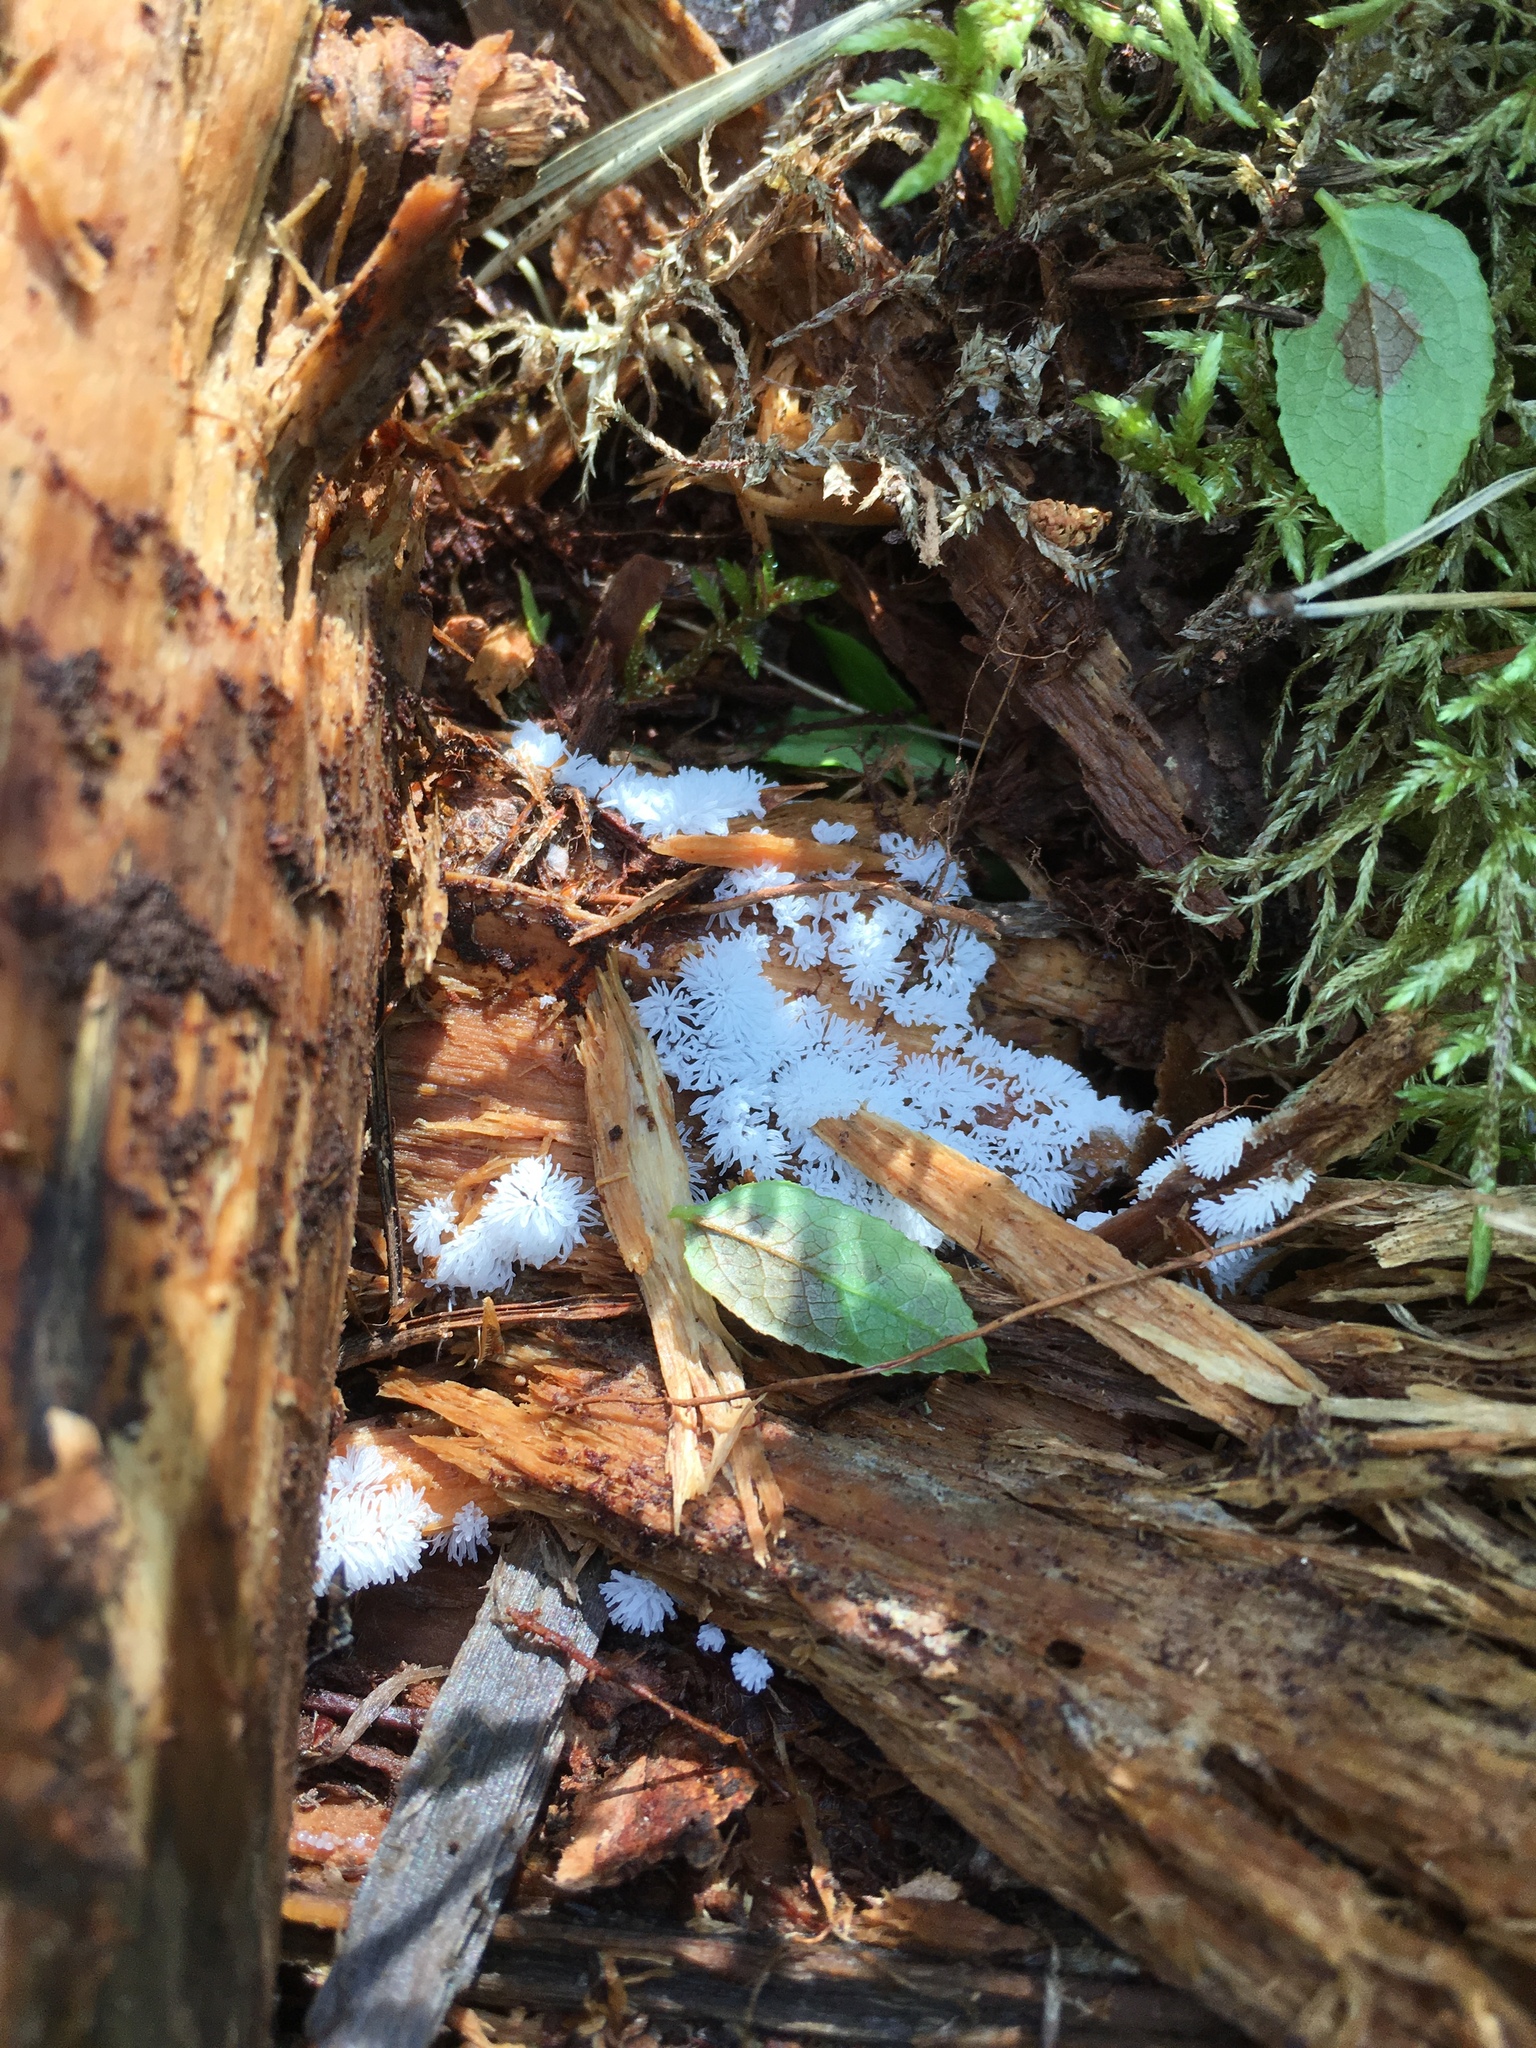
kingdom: Protozoa
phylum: Mycetozoa
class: Protosteliomycetes
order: Ceratiomyxales
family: Ceratiomyxaceae
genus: Ceratiomyxa
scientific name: Ceratiomyxa fruticulosa
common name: Honeycomb coral slime mold
